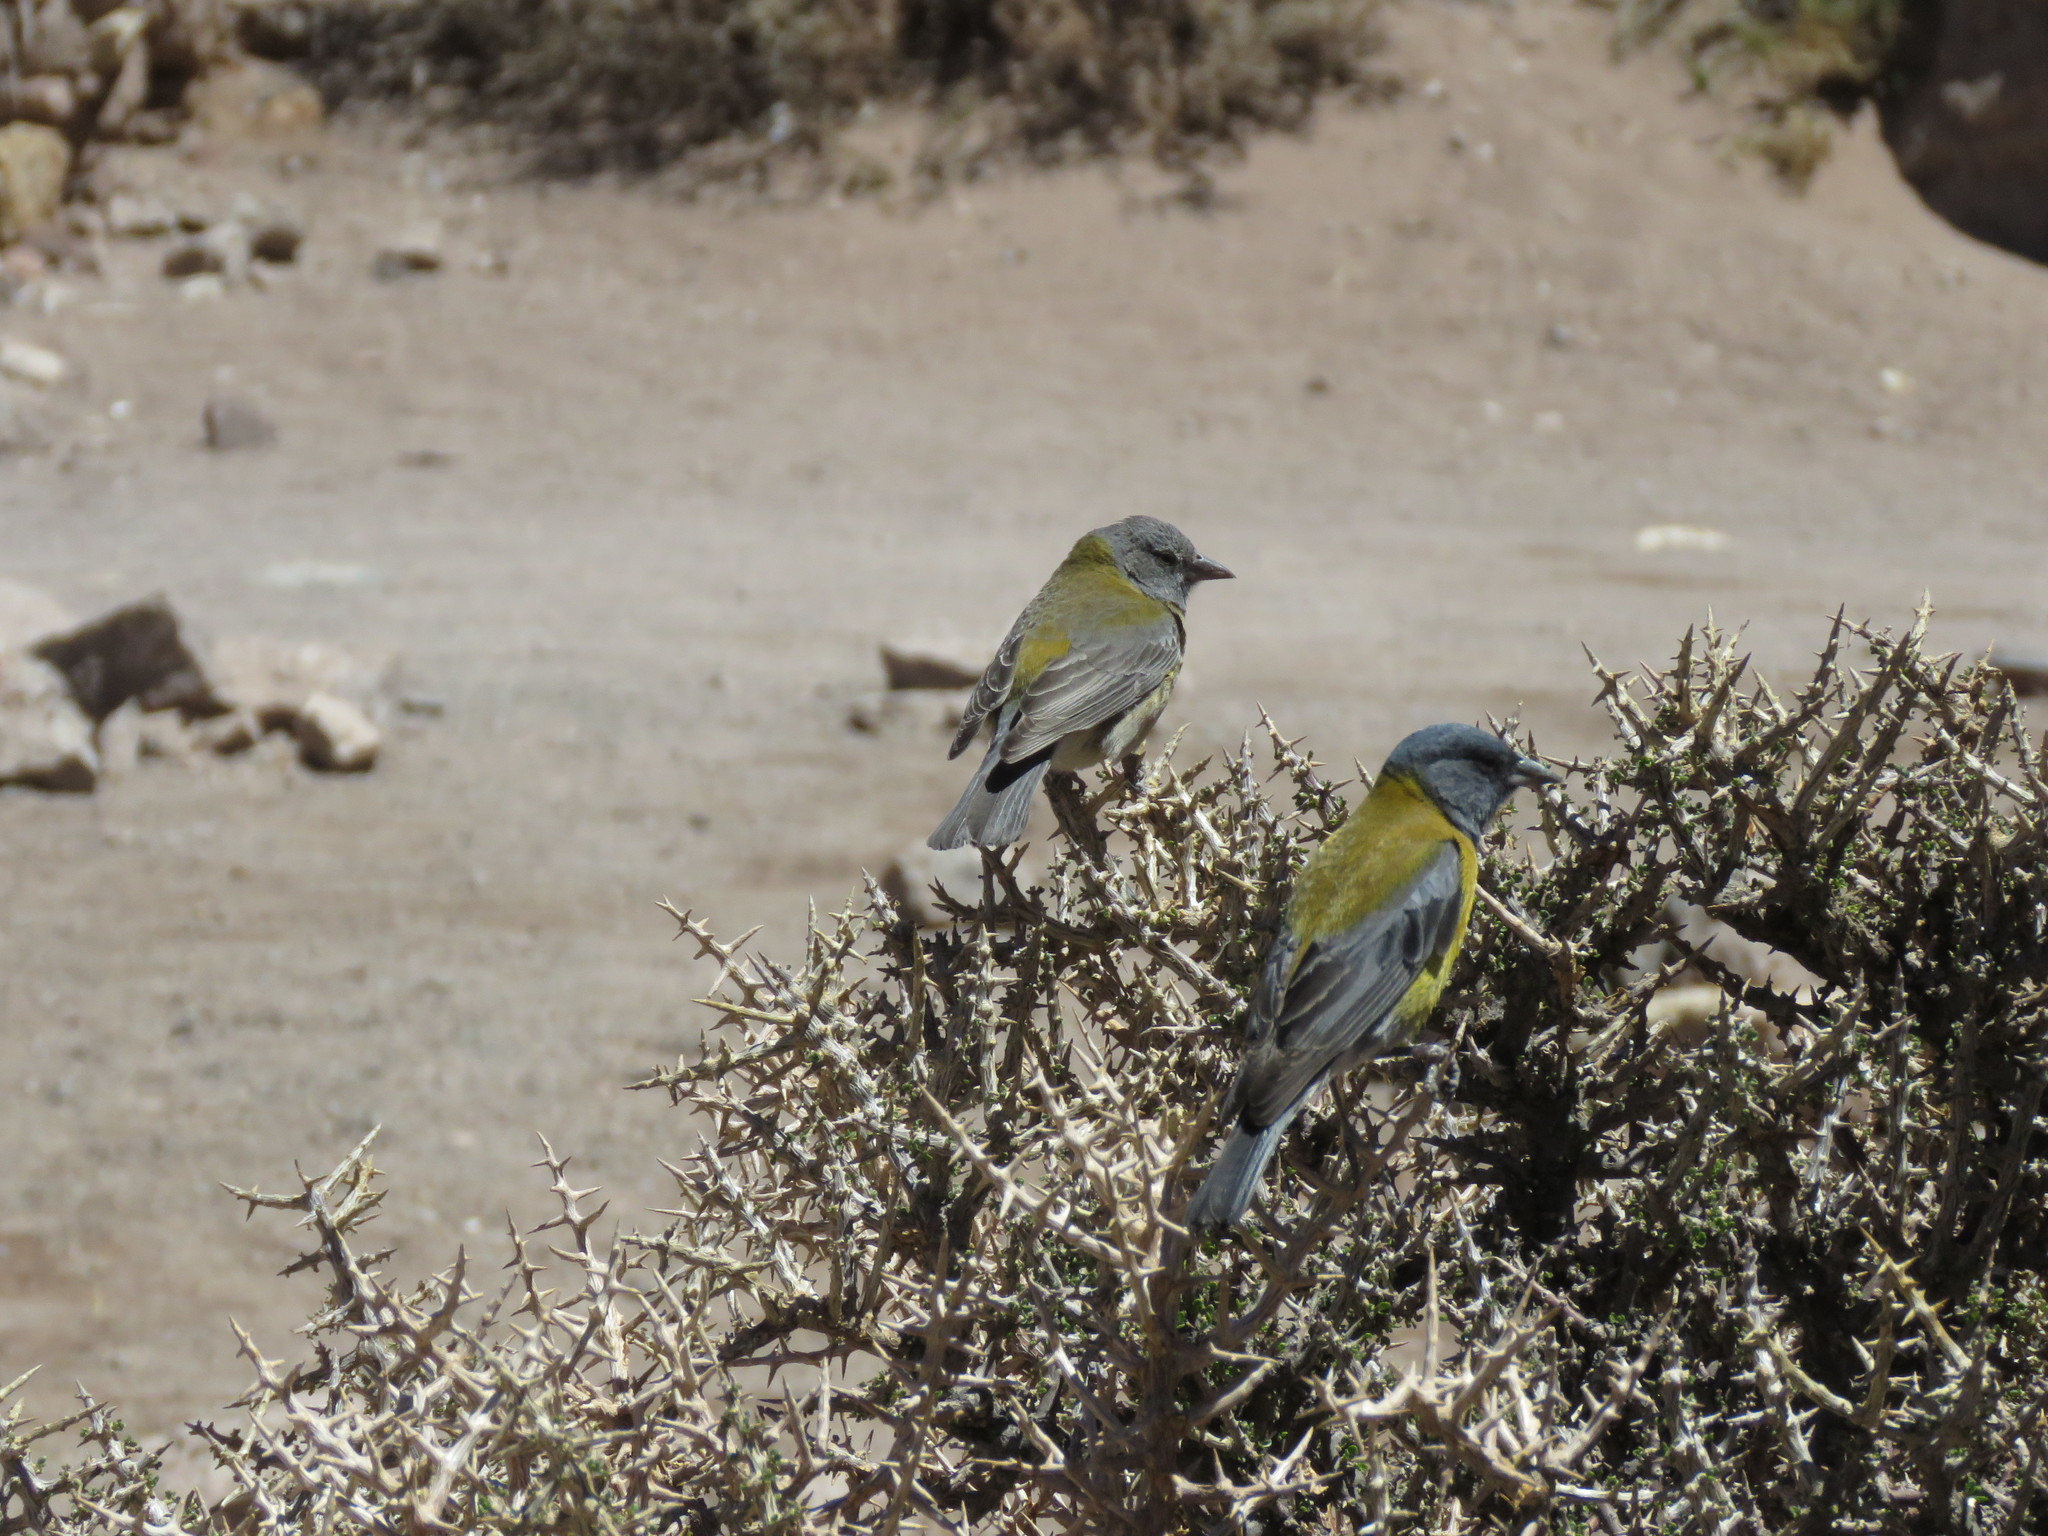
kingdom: Animalia
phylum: Chordata
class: Aves
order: Passeriformes
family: Thraupidae
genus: Phrygilus
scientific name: Phrygilus gayi
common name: Grey-hooded sierra finch
